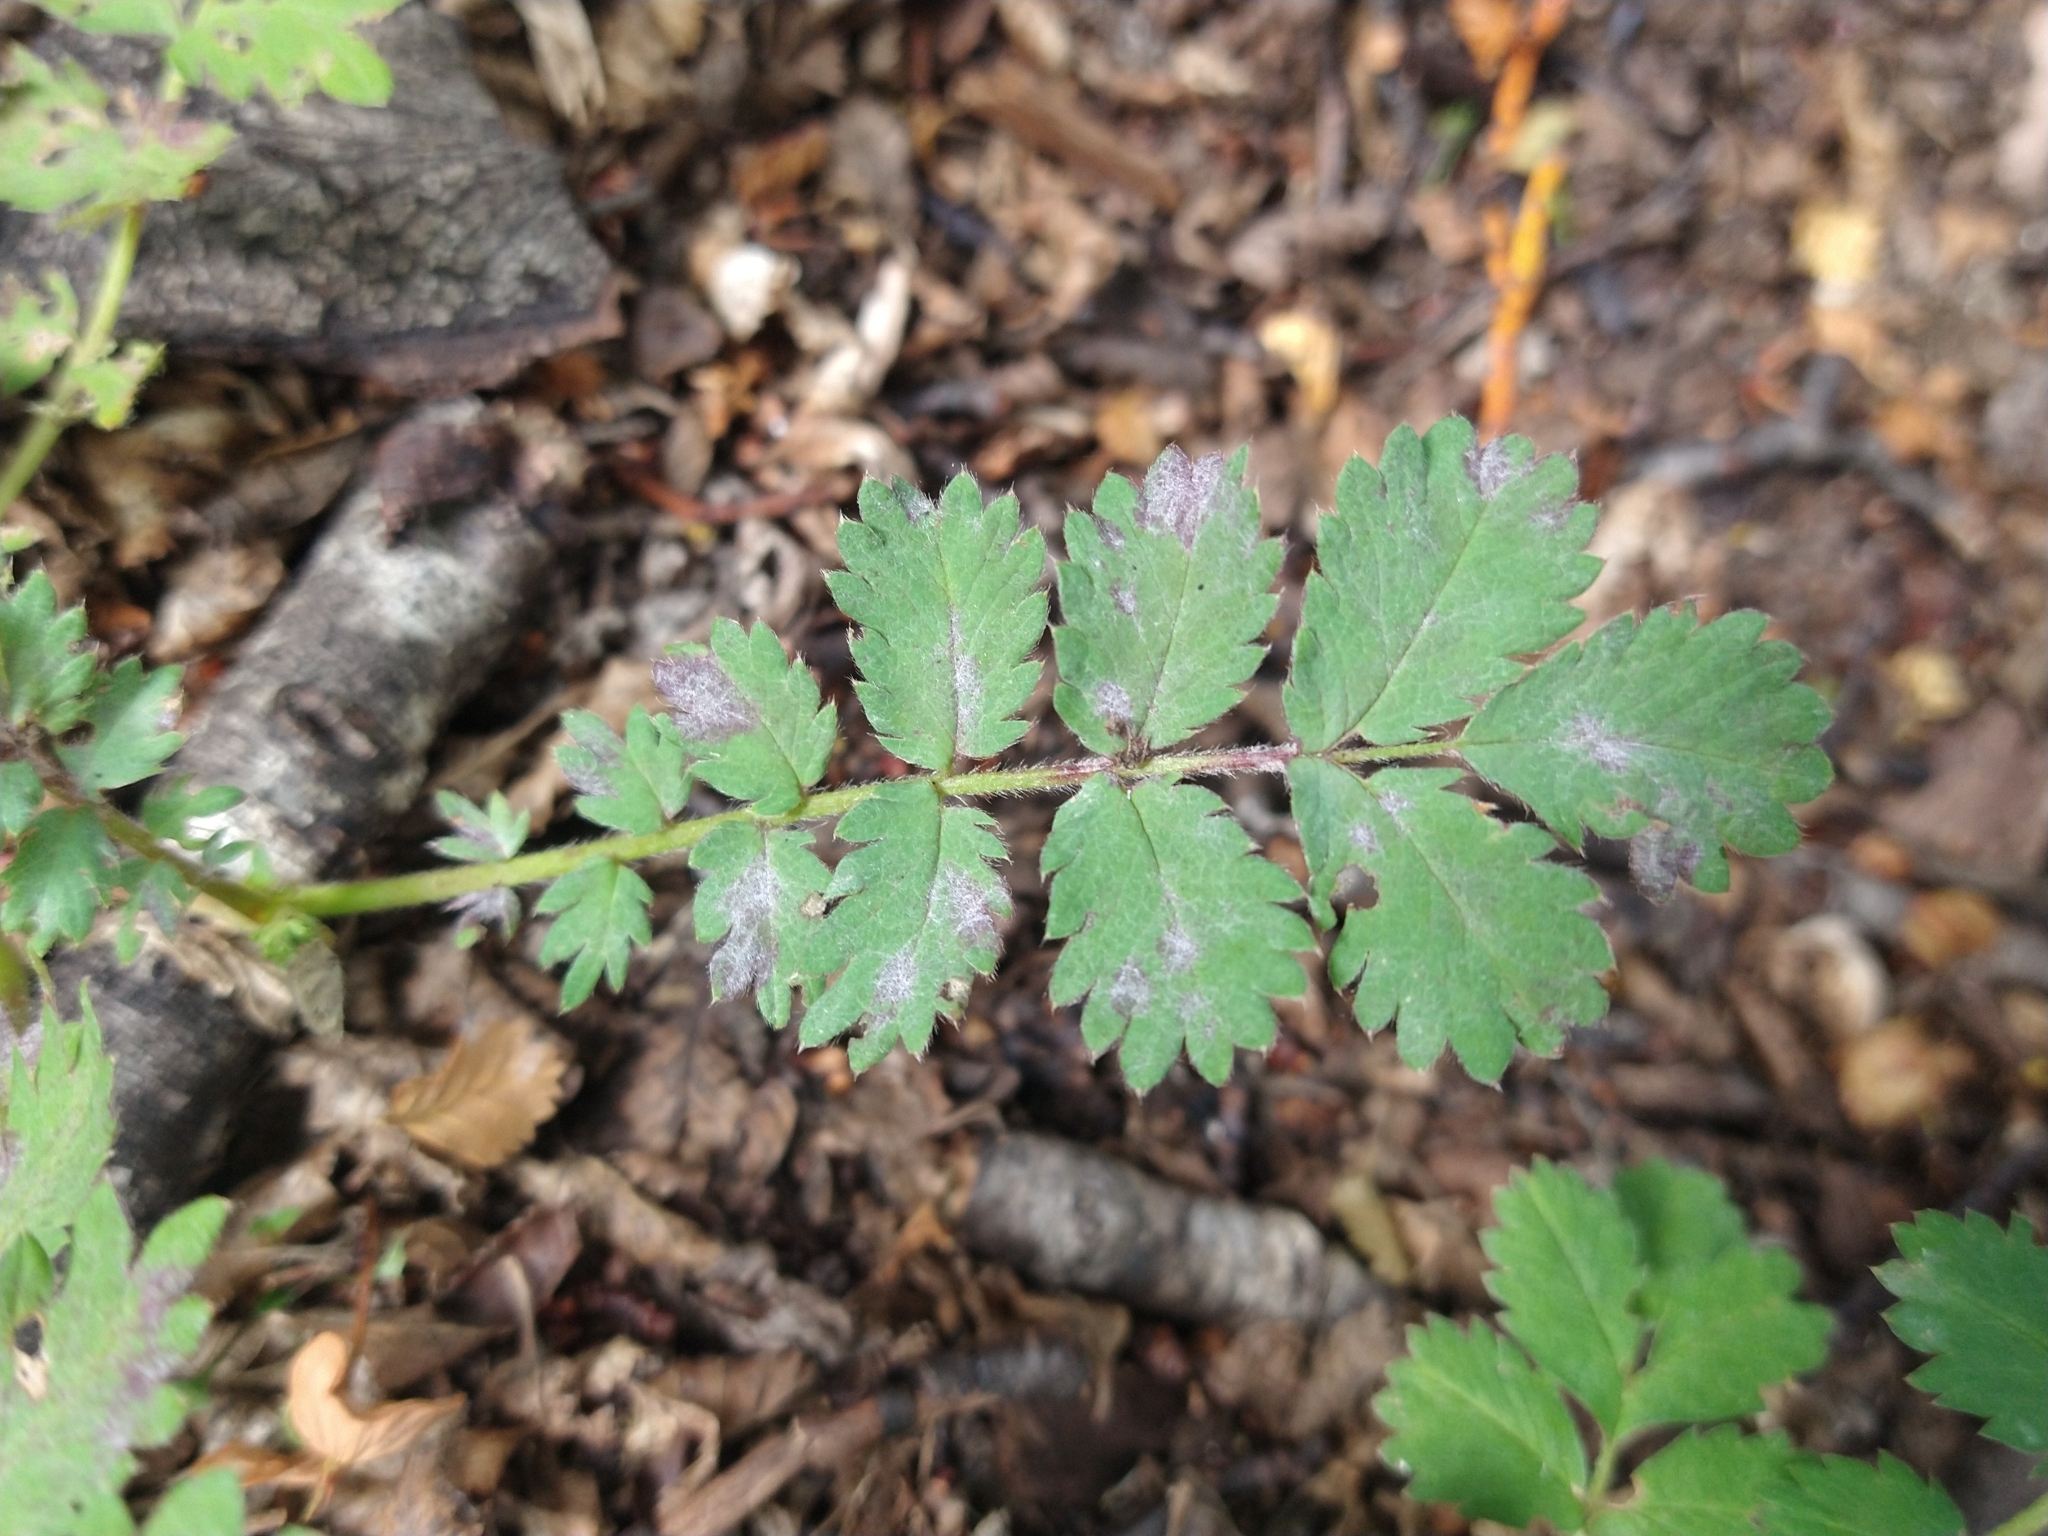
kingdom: Plantae
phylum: Tracheophyta
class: Magnoliopsida
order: Rosales
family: Rosaceae
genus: Acaena
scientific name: Acaena ovalifolia
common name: Two-spined acaena
